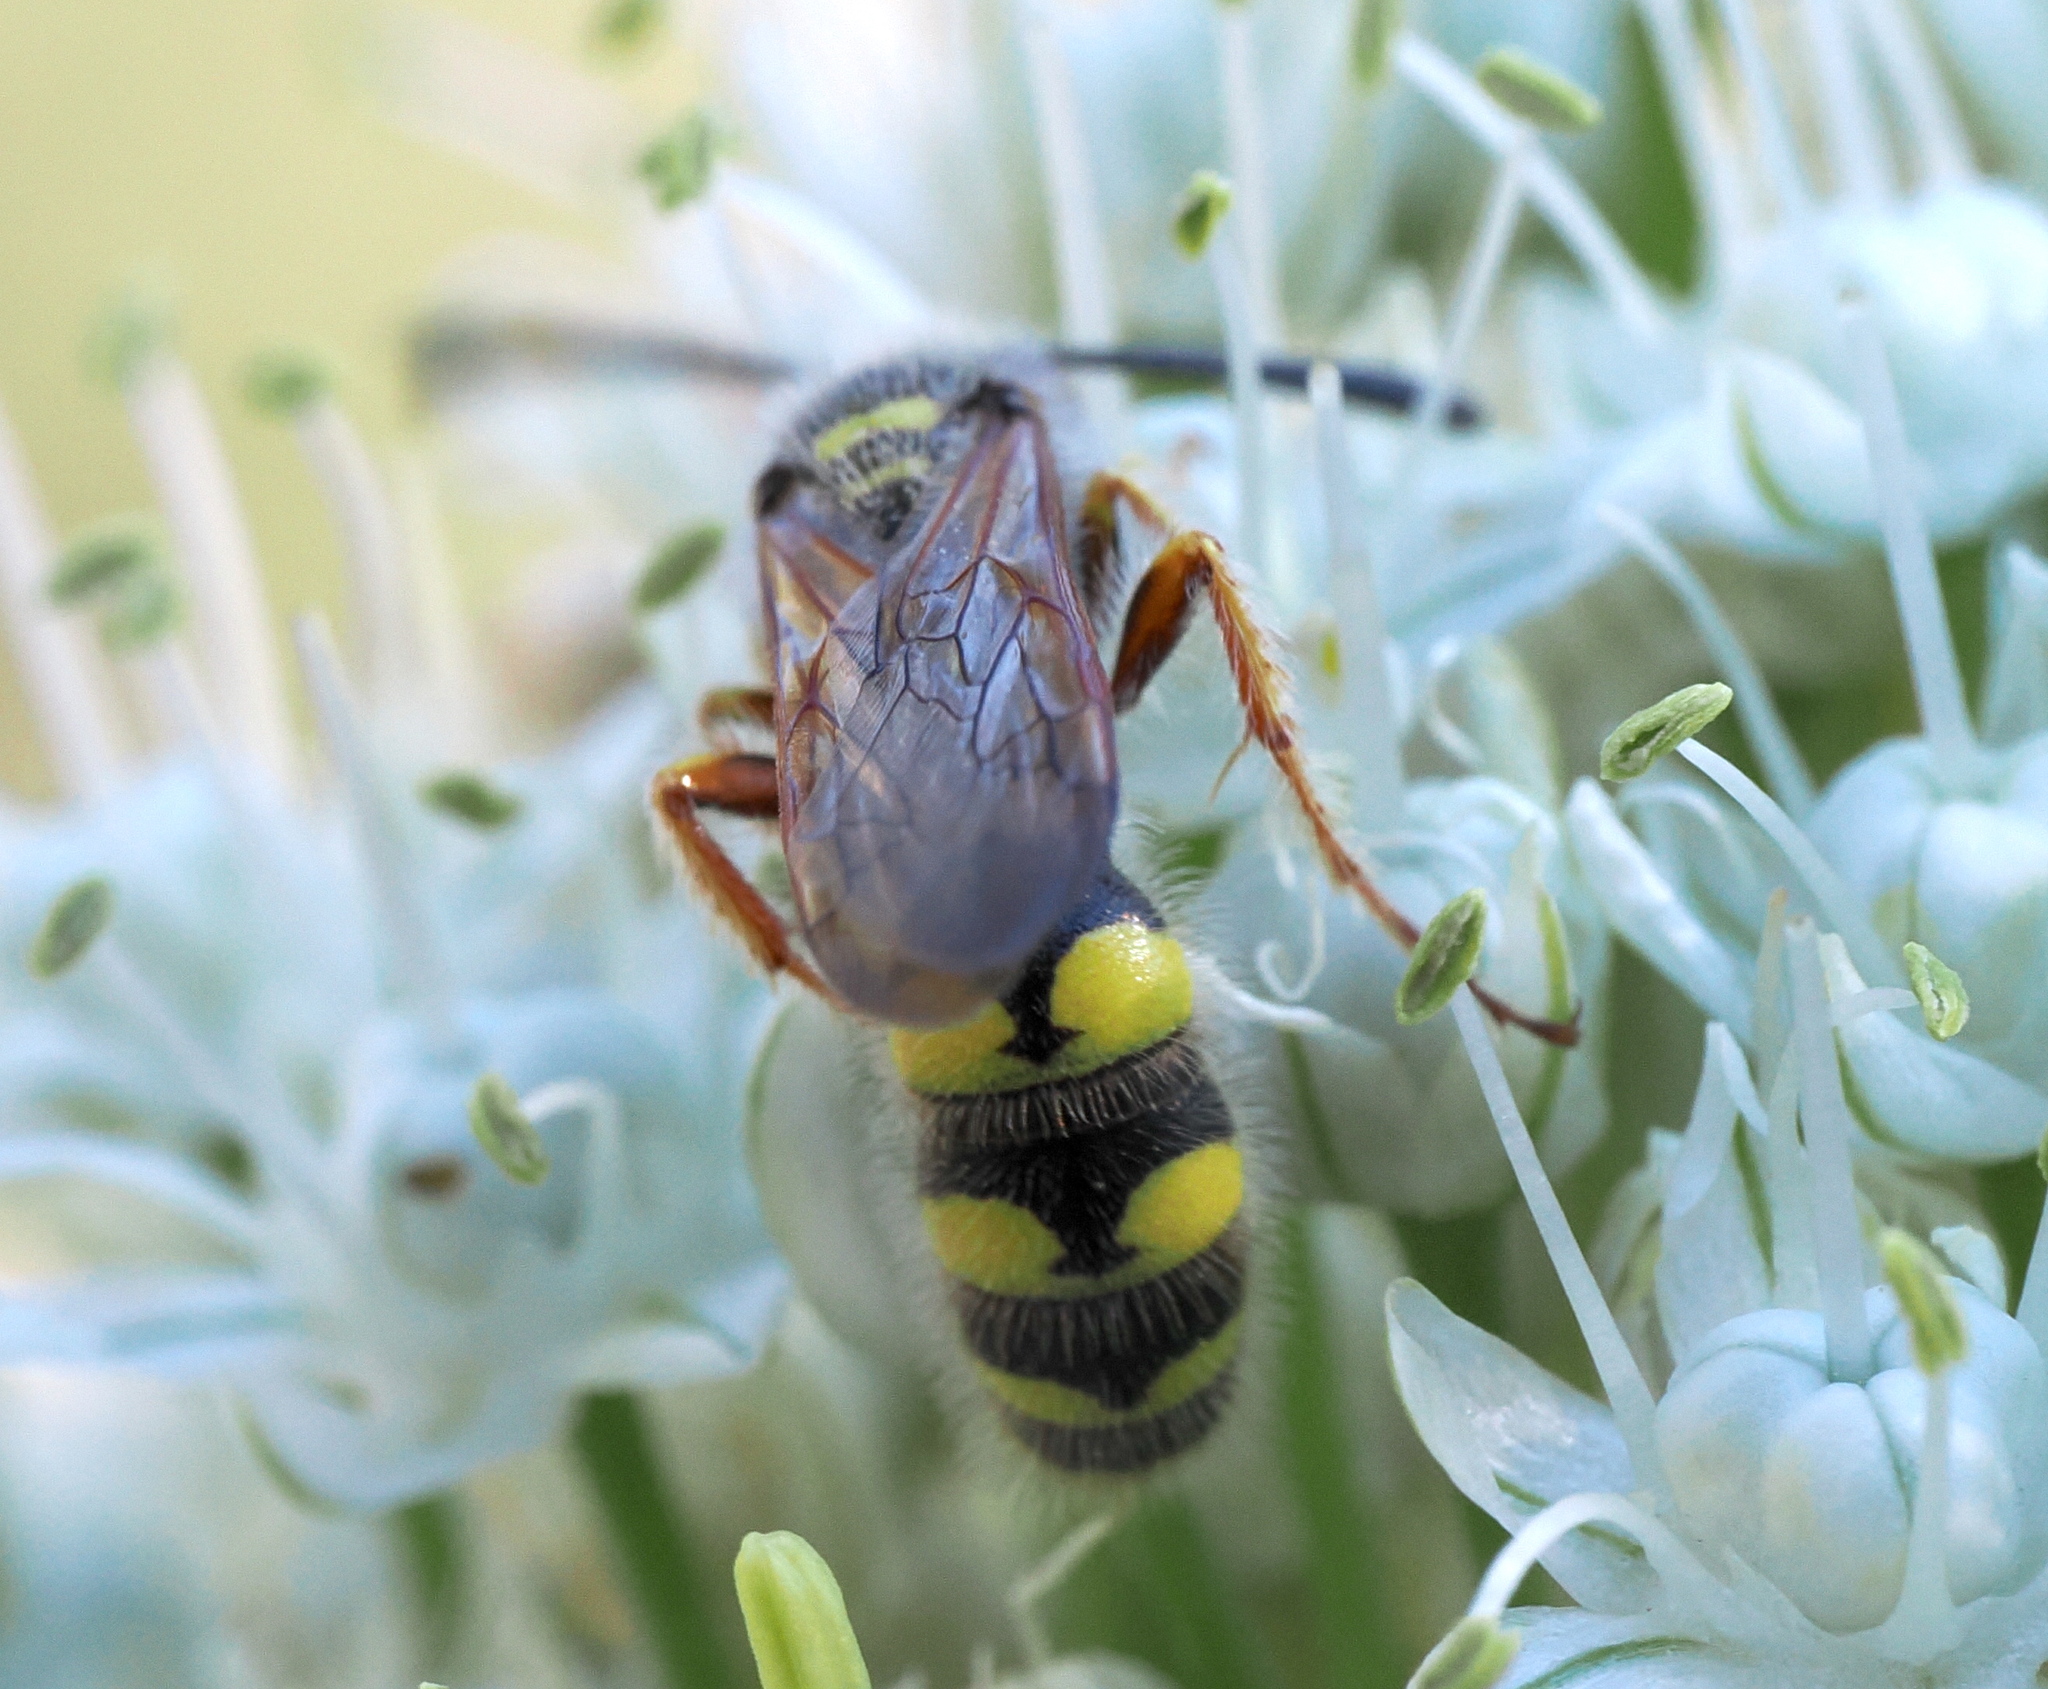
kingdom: Animalia
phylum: Arthropoda
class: Insecta
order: Hymenoptera
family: Sphecidae
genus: Crioscolia
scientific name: Crioscolia
